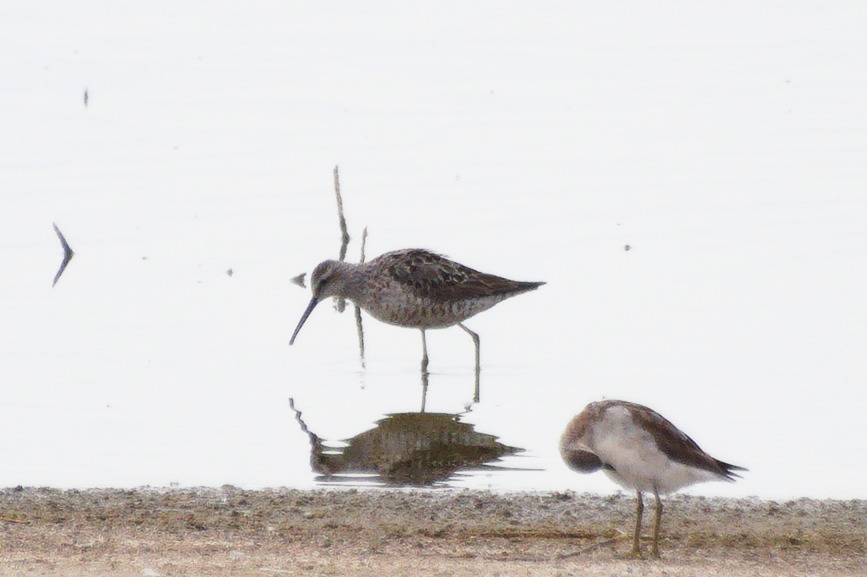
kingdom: Animalia
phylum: Chordata
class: Aves
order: Charadriiformes
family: Scolopacidae
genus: Calidris
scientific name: Calidris himantopus
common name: Stilt sandpiper
